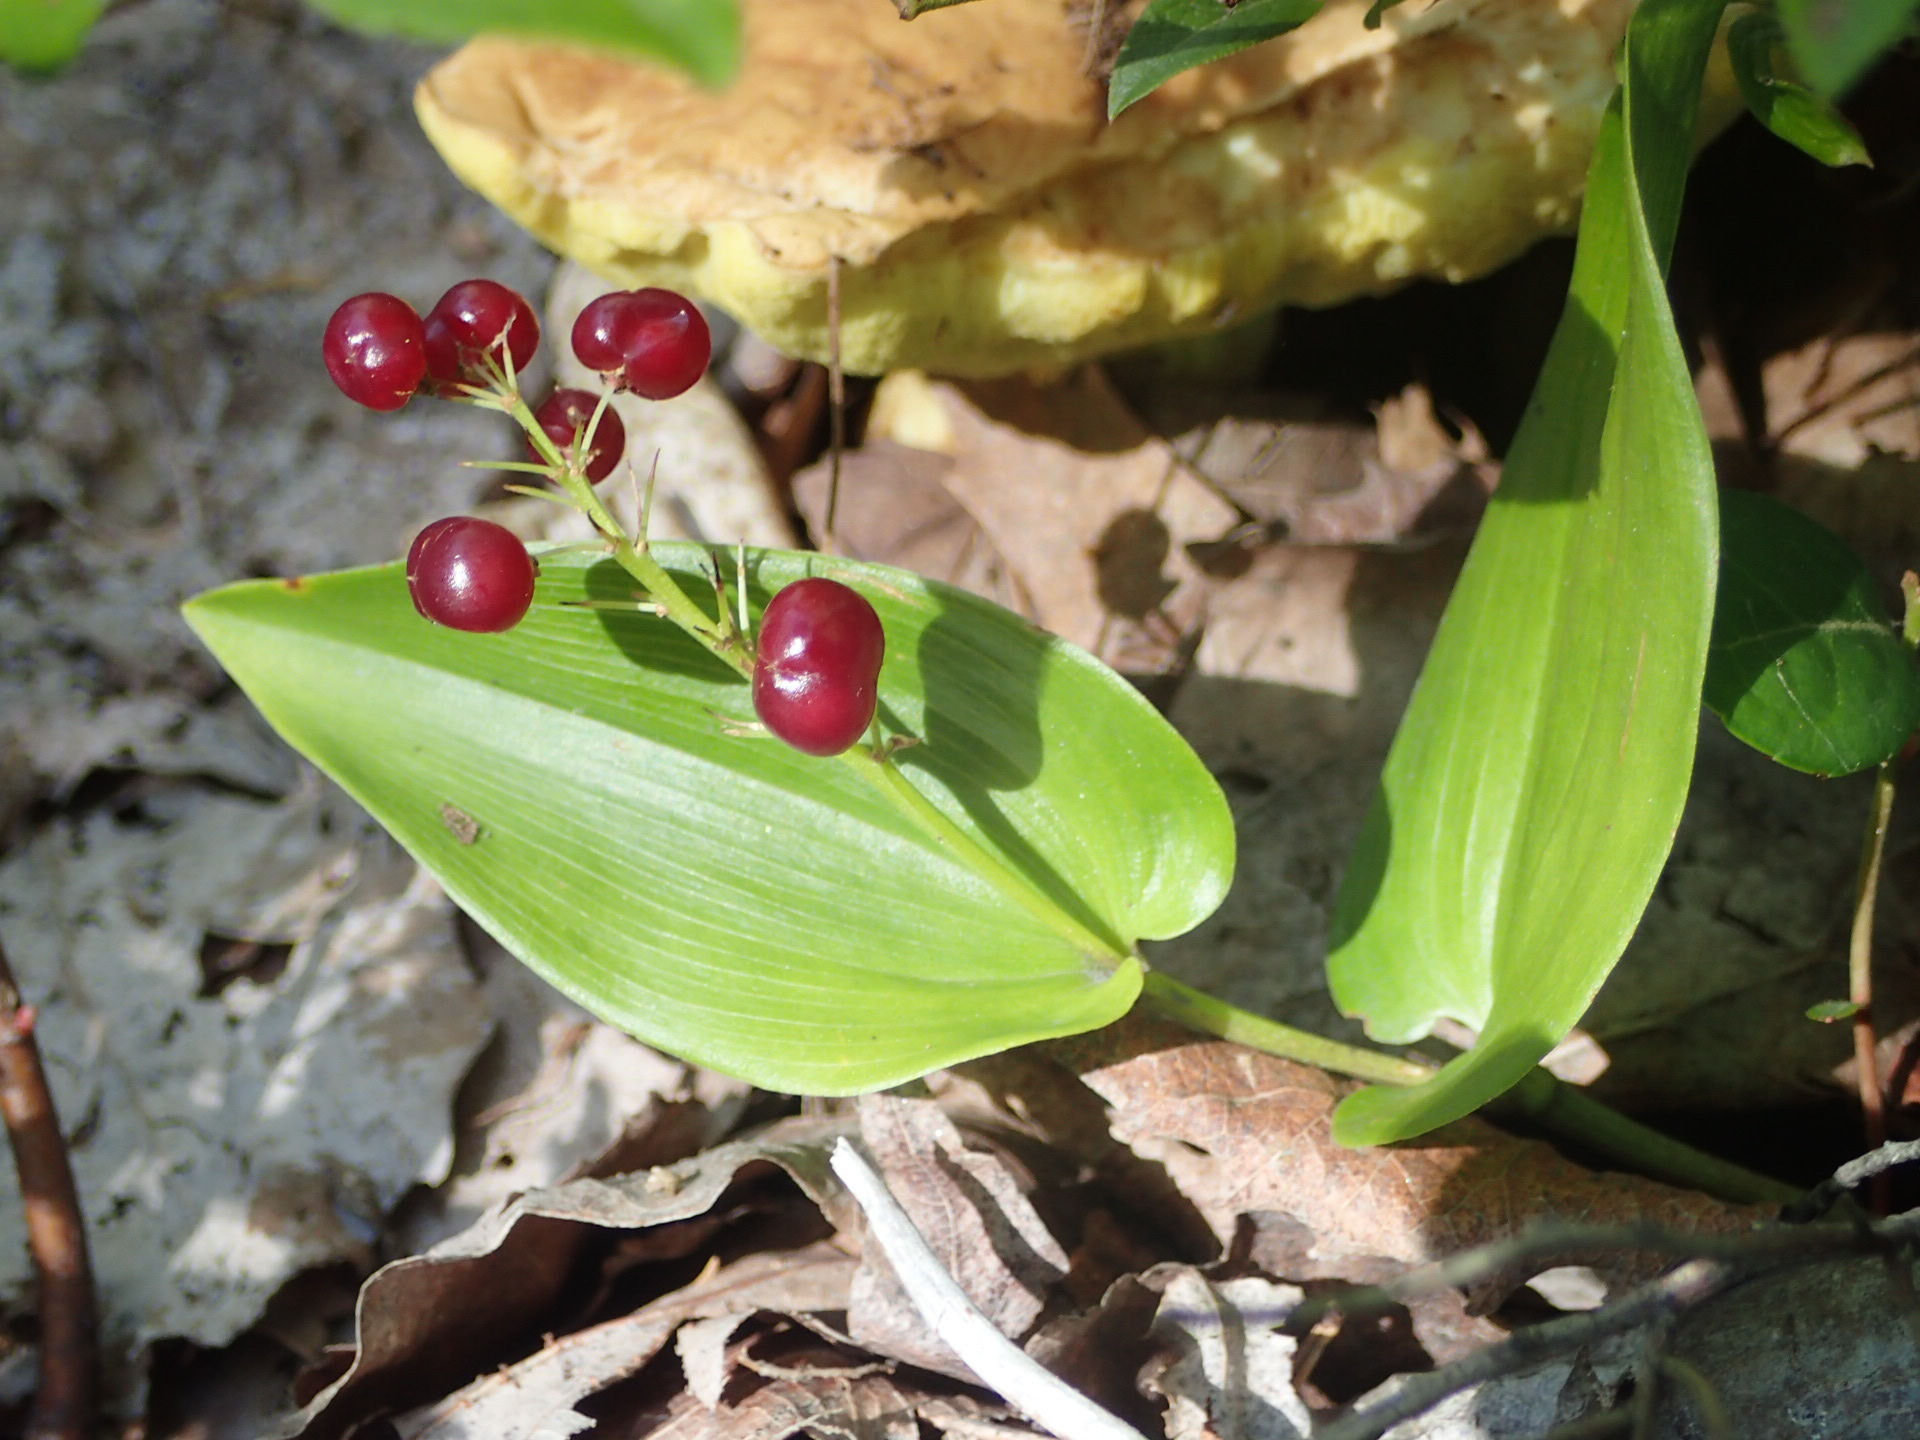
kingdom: Plantae
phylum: Tracheophyta
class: Liliopsida
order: Asparagales
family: Asparagaceae
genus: Maianthemum
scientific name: Maianthemum canadense
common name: False lily-of-the-valley
